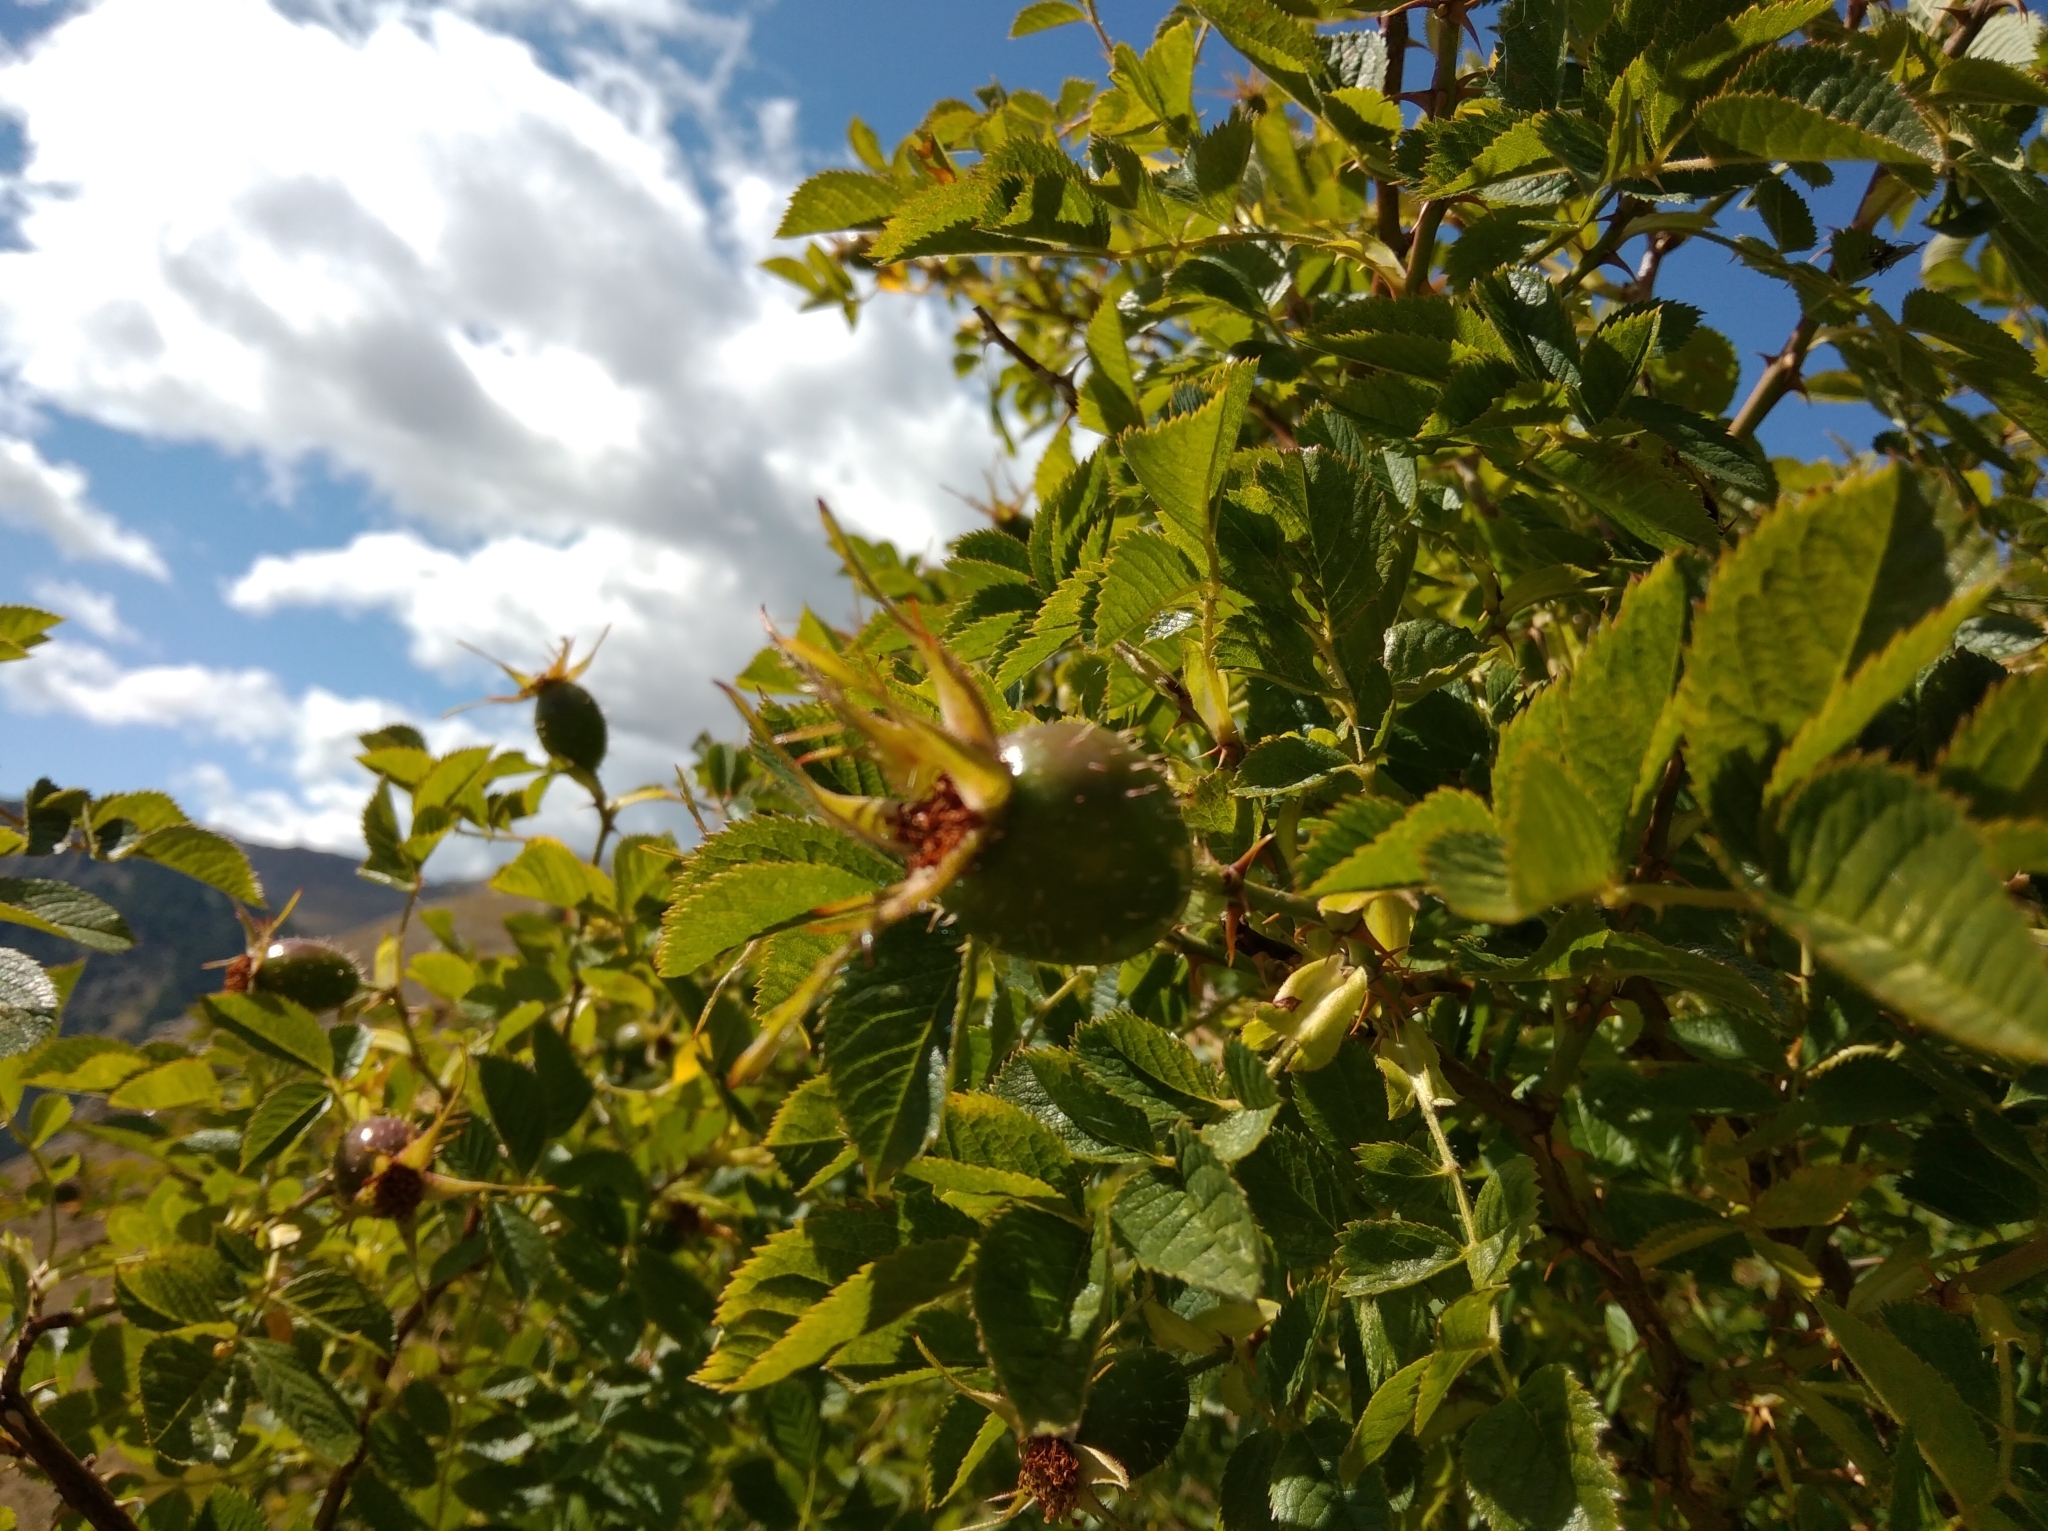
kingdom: Plantae
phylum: Tracheophyta
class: Magnoliopsida
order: Rosales
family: Rosaceae
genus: Rosa
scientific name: Rosa rubiginosa
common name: Sweet-briar
